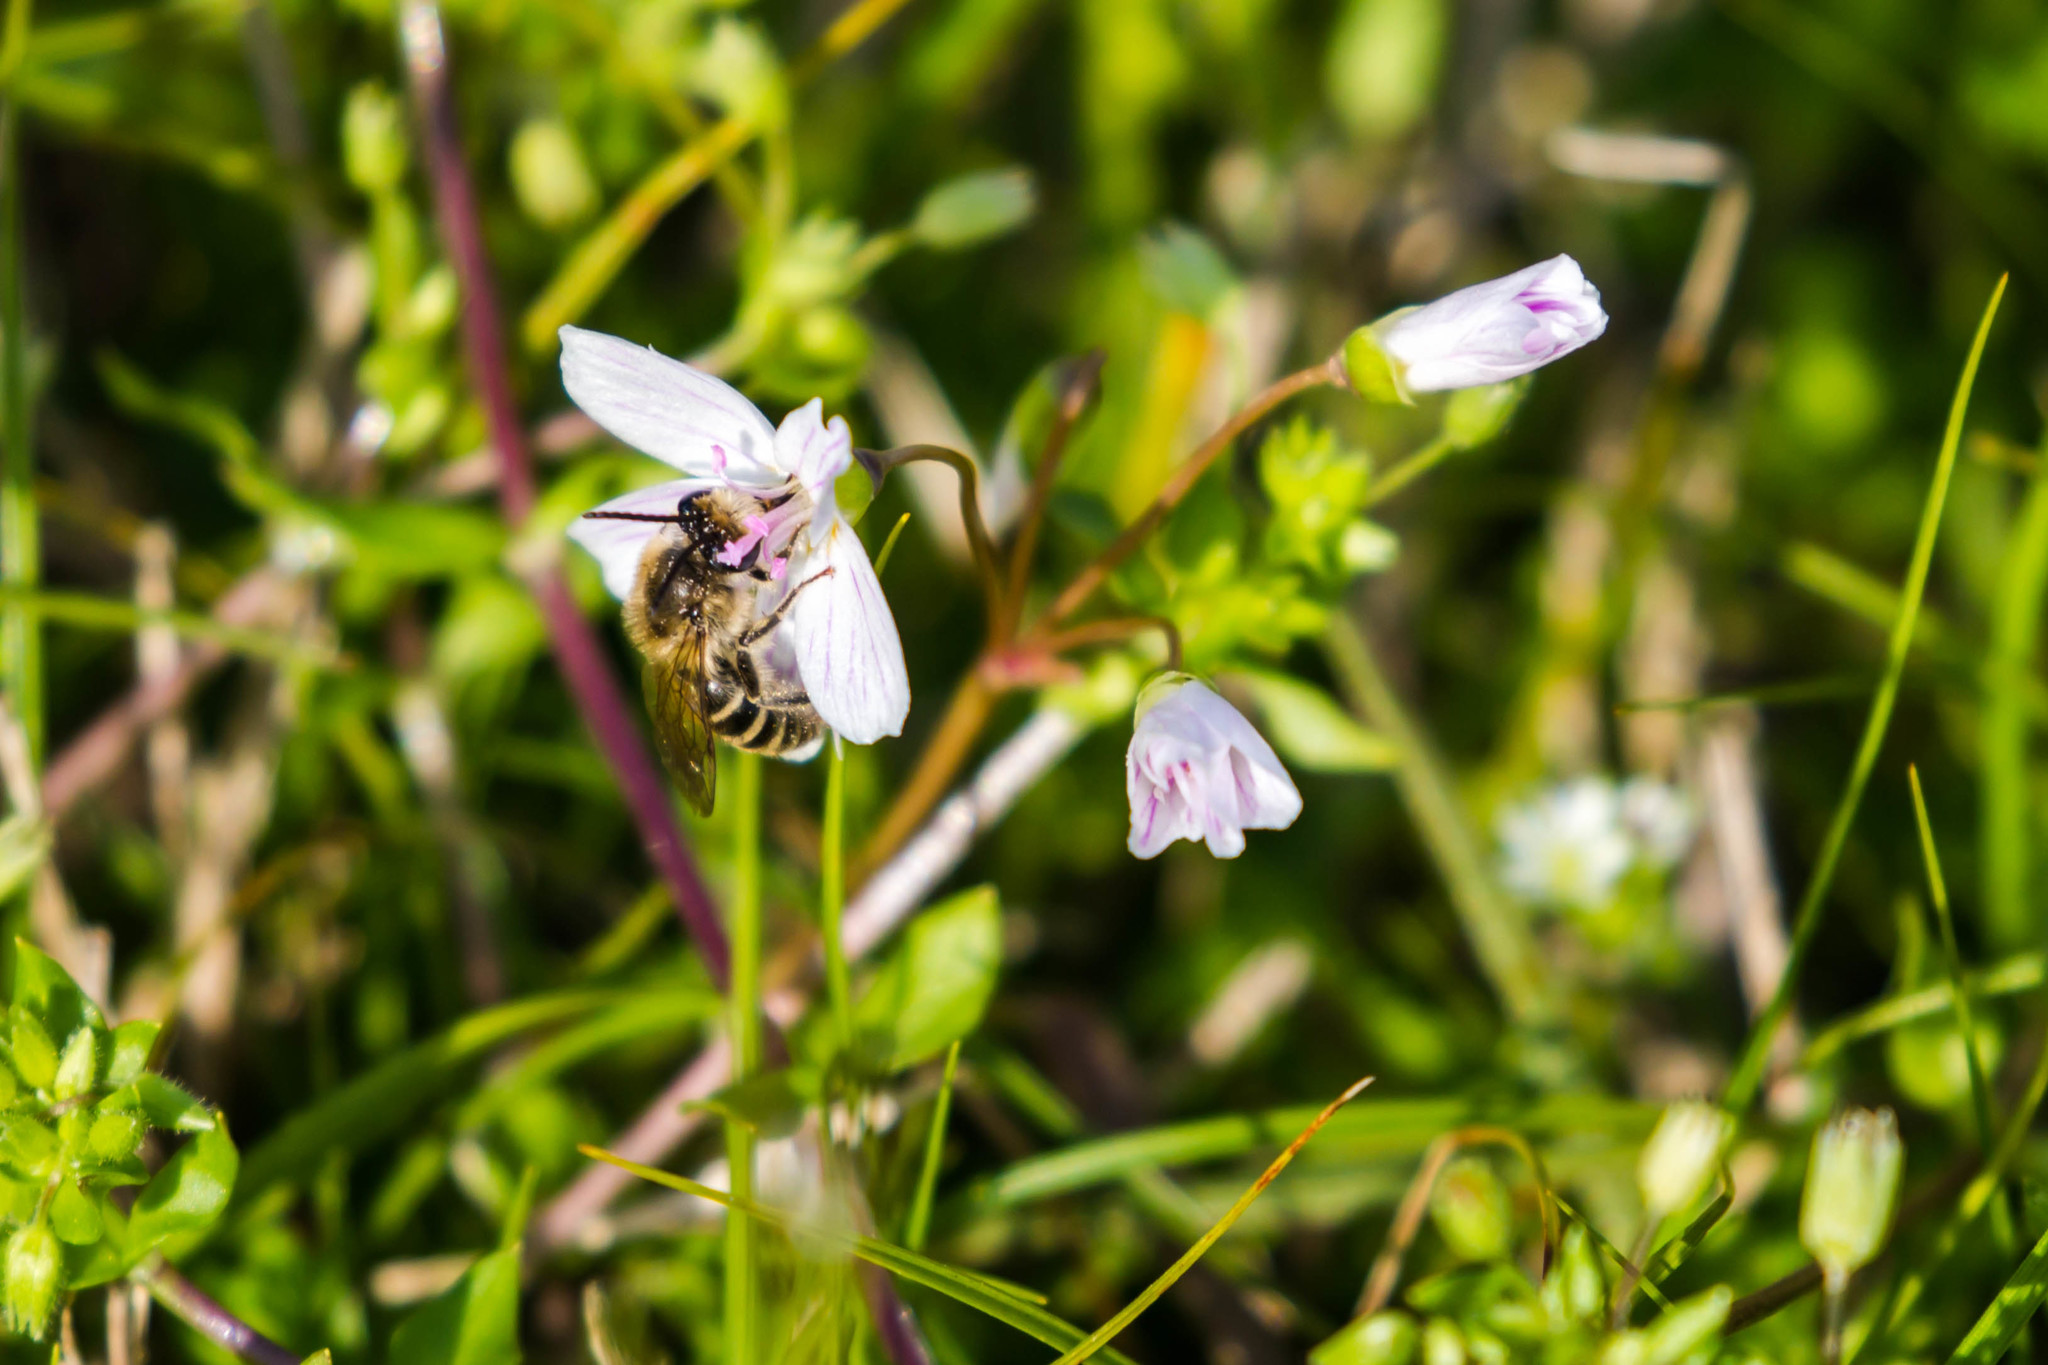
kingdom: Animalia
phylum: Arthropoda
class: Insecta
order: Hymenoptera
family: Colletidae
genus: Colletes
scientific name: Colletes inaequalis
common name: Unequal cellophane bee
